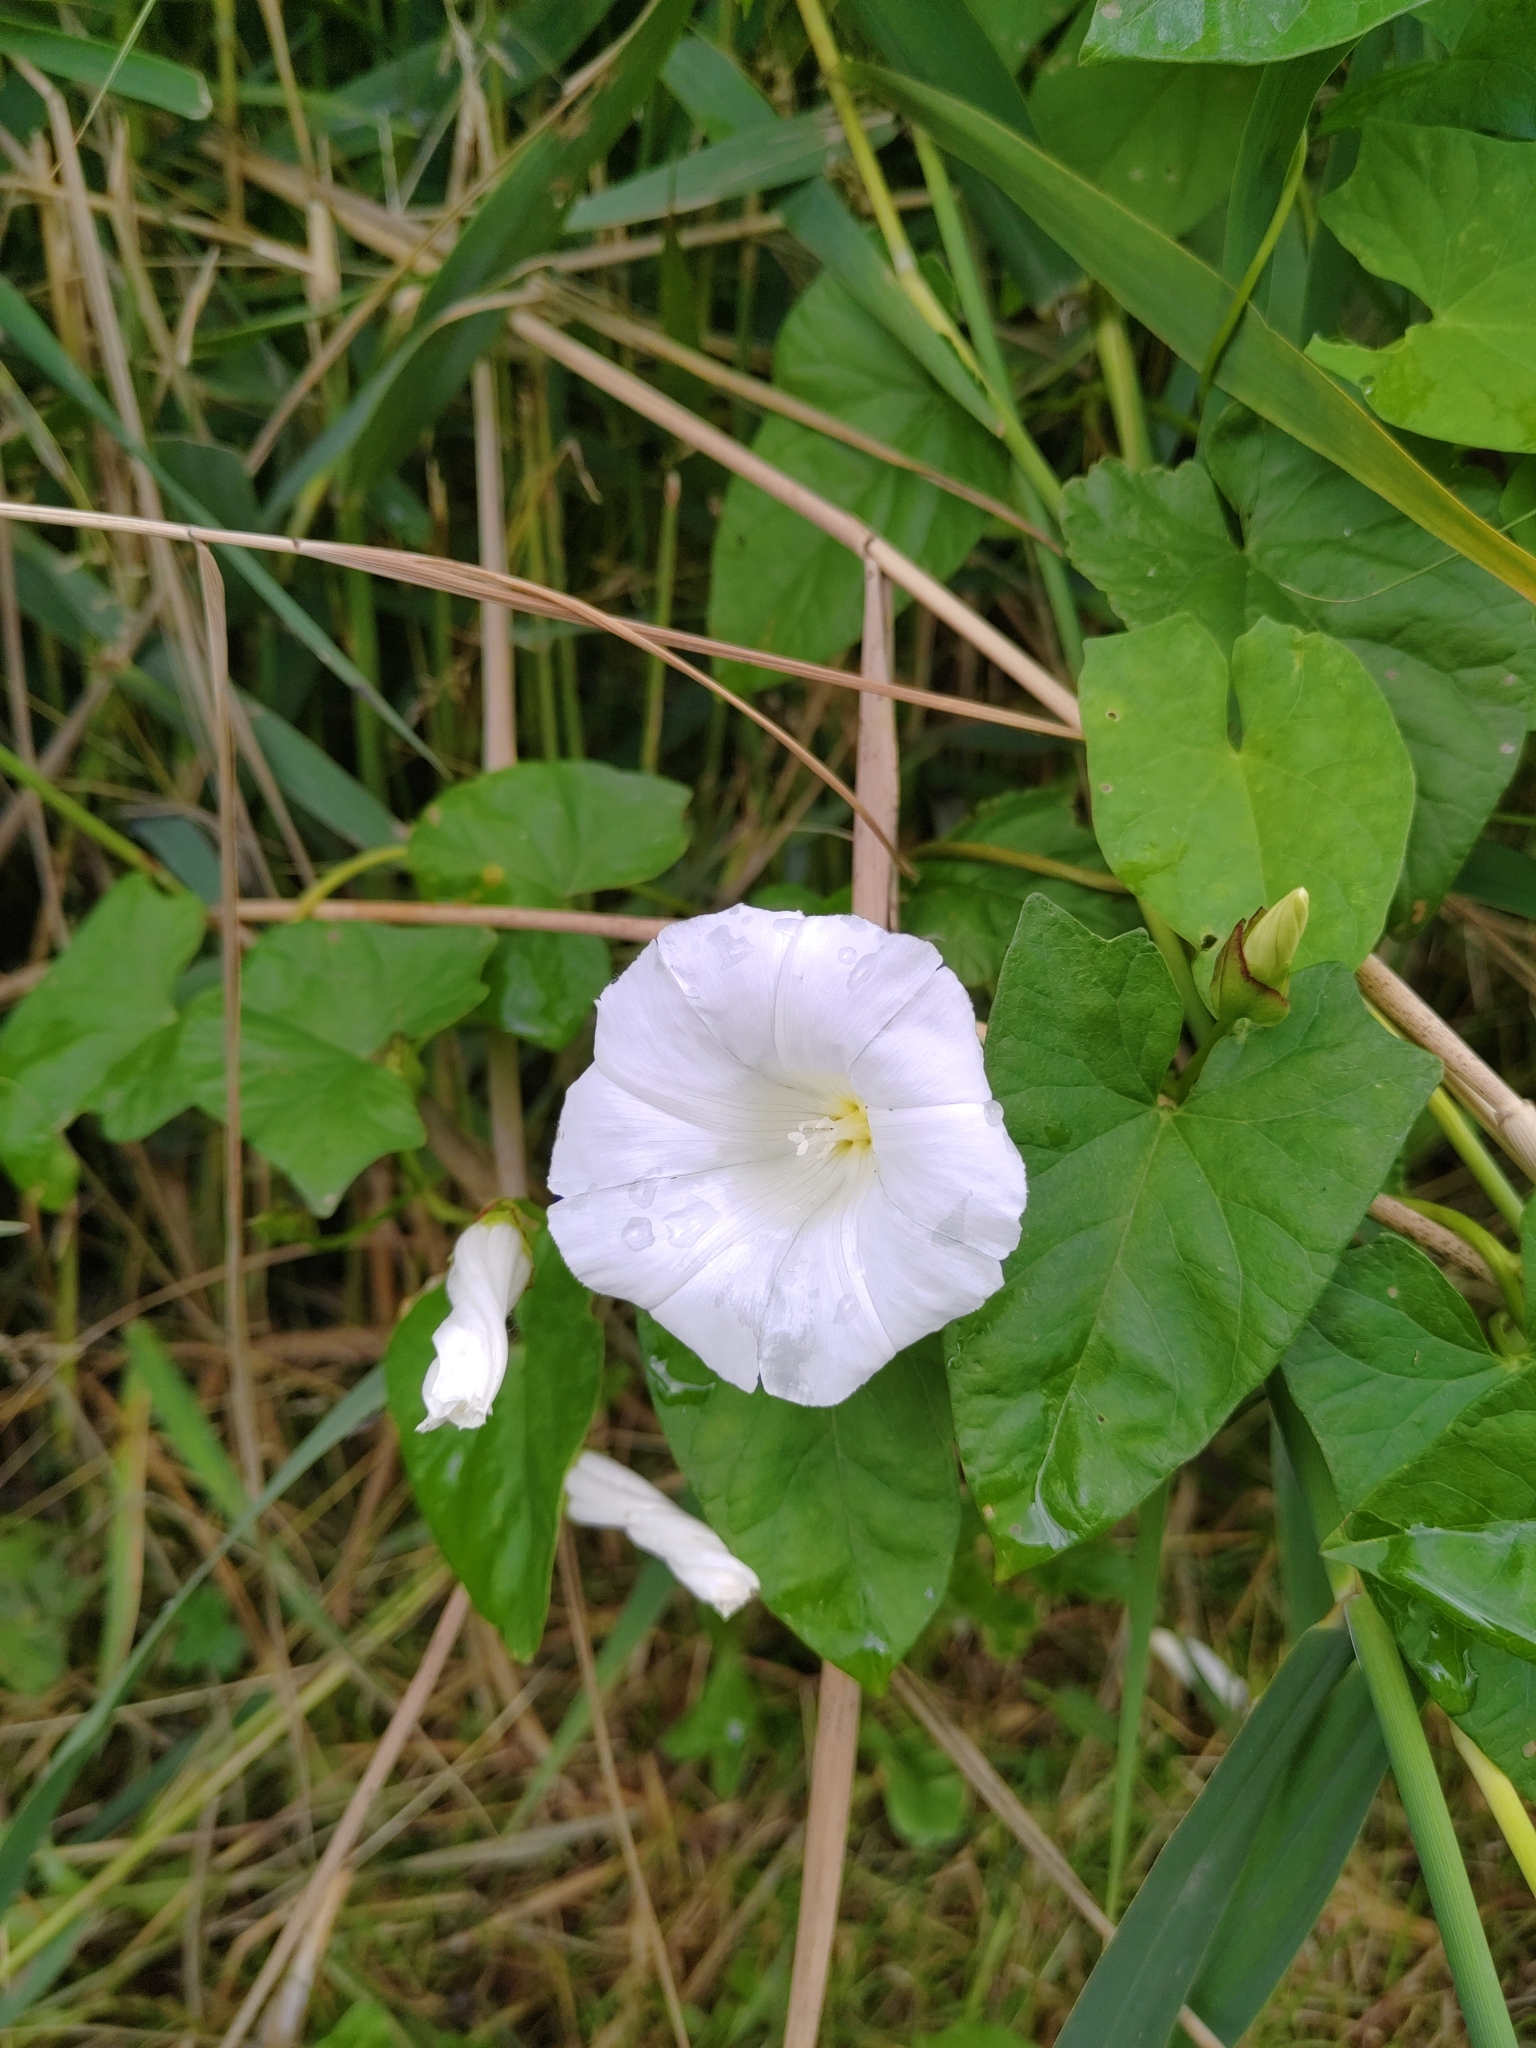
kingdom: Plantae
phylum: Tracheophyta
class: Magnoliopsida
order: Solanales
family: Convolvulaceae
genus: Calystegia
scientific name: Calystegia sepium
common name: Hedge bindweed
